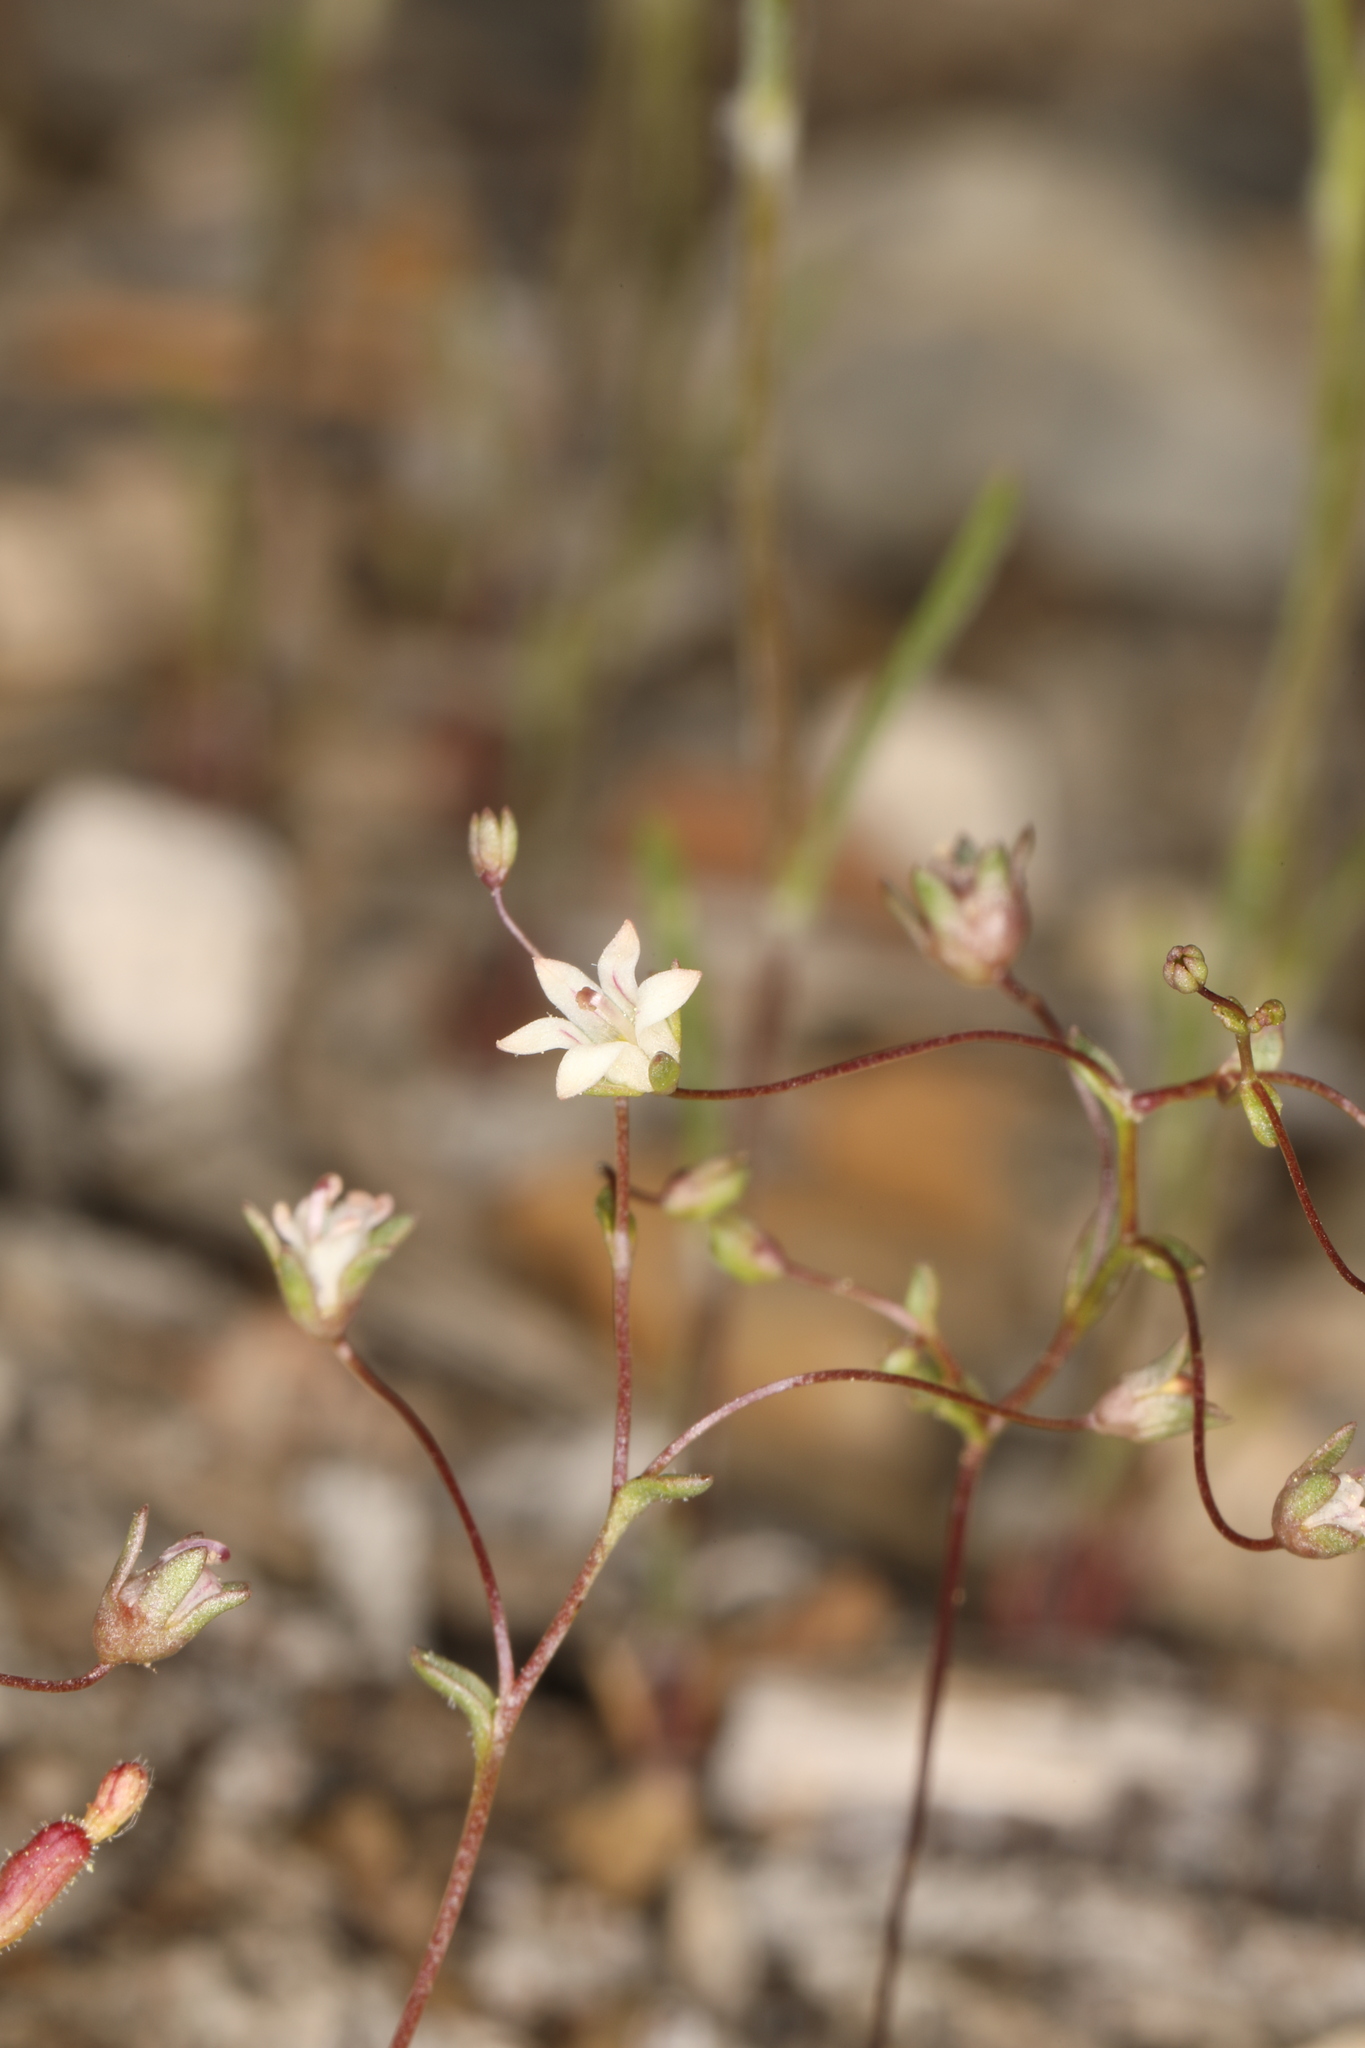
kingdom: Plantae
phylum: Tracheophyta
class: Magnoliopsida
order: Asterales
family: Campanulaceae
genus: Nemacladus
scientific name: Nemacladus inyoensis
